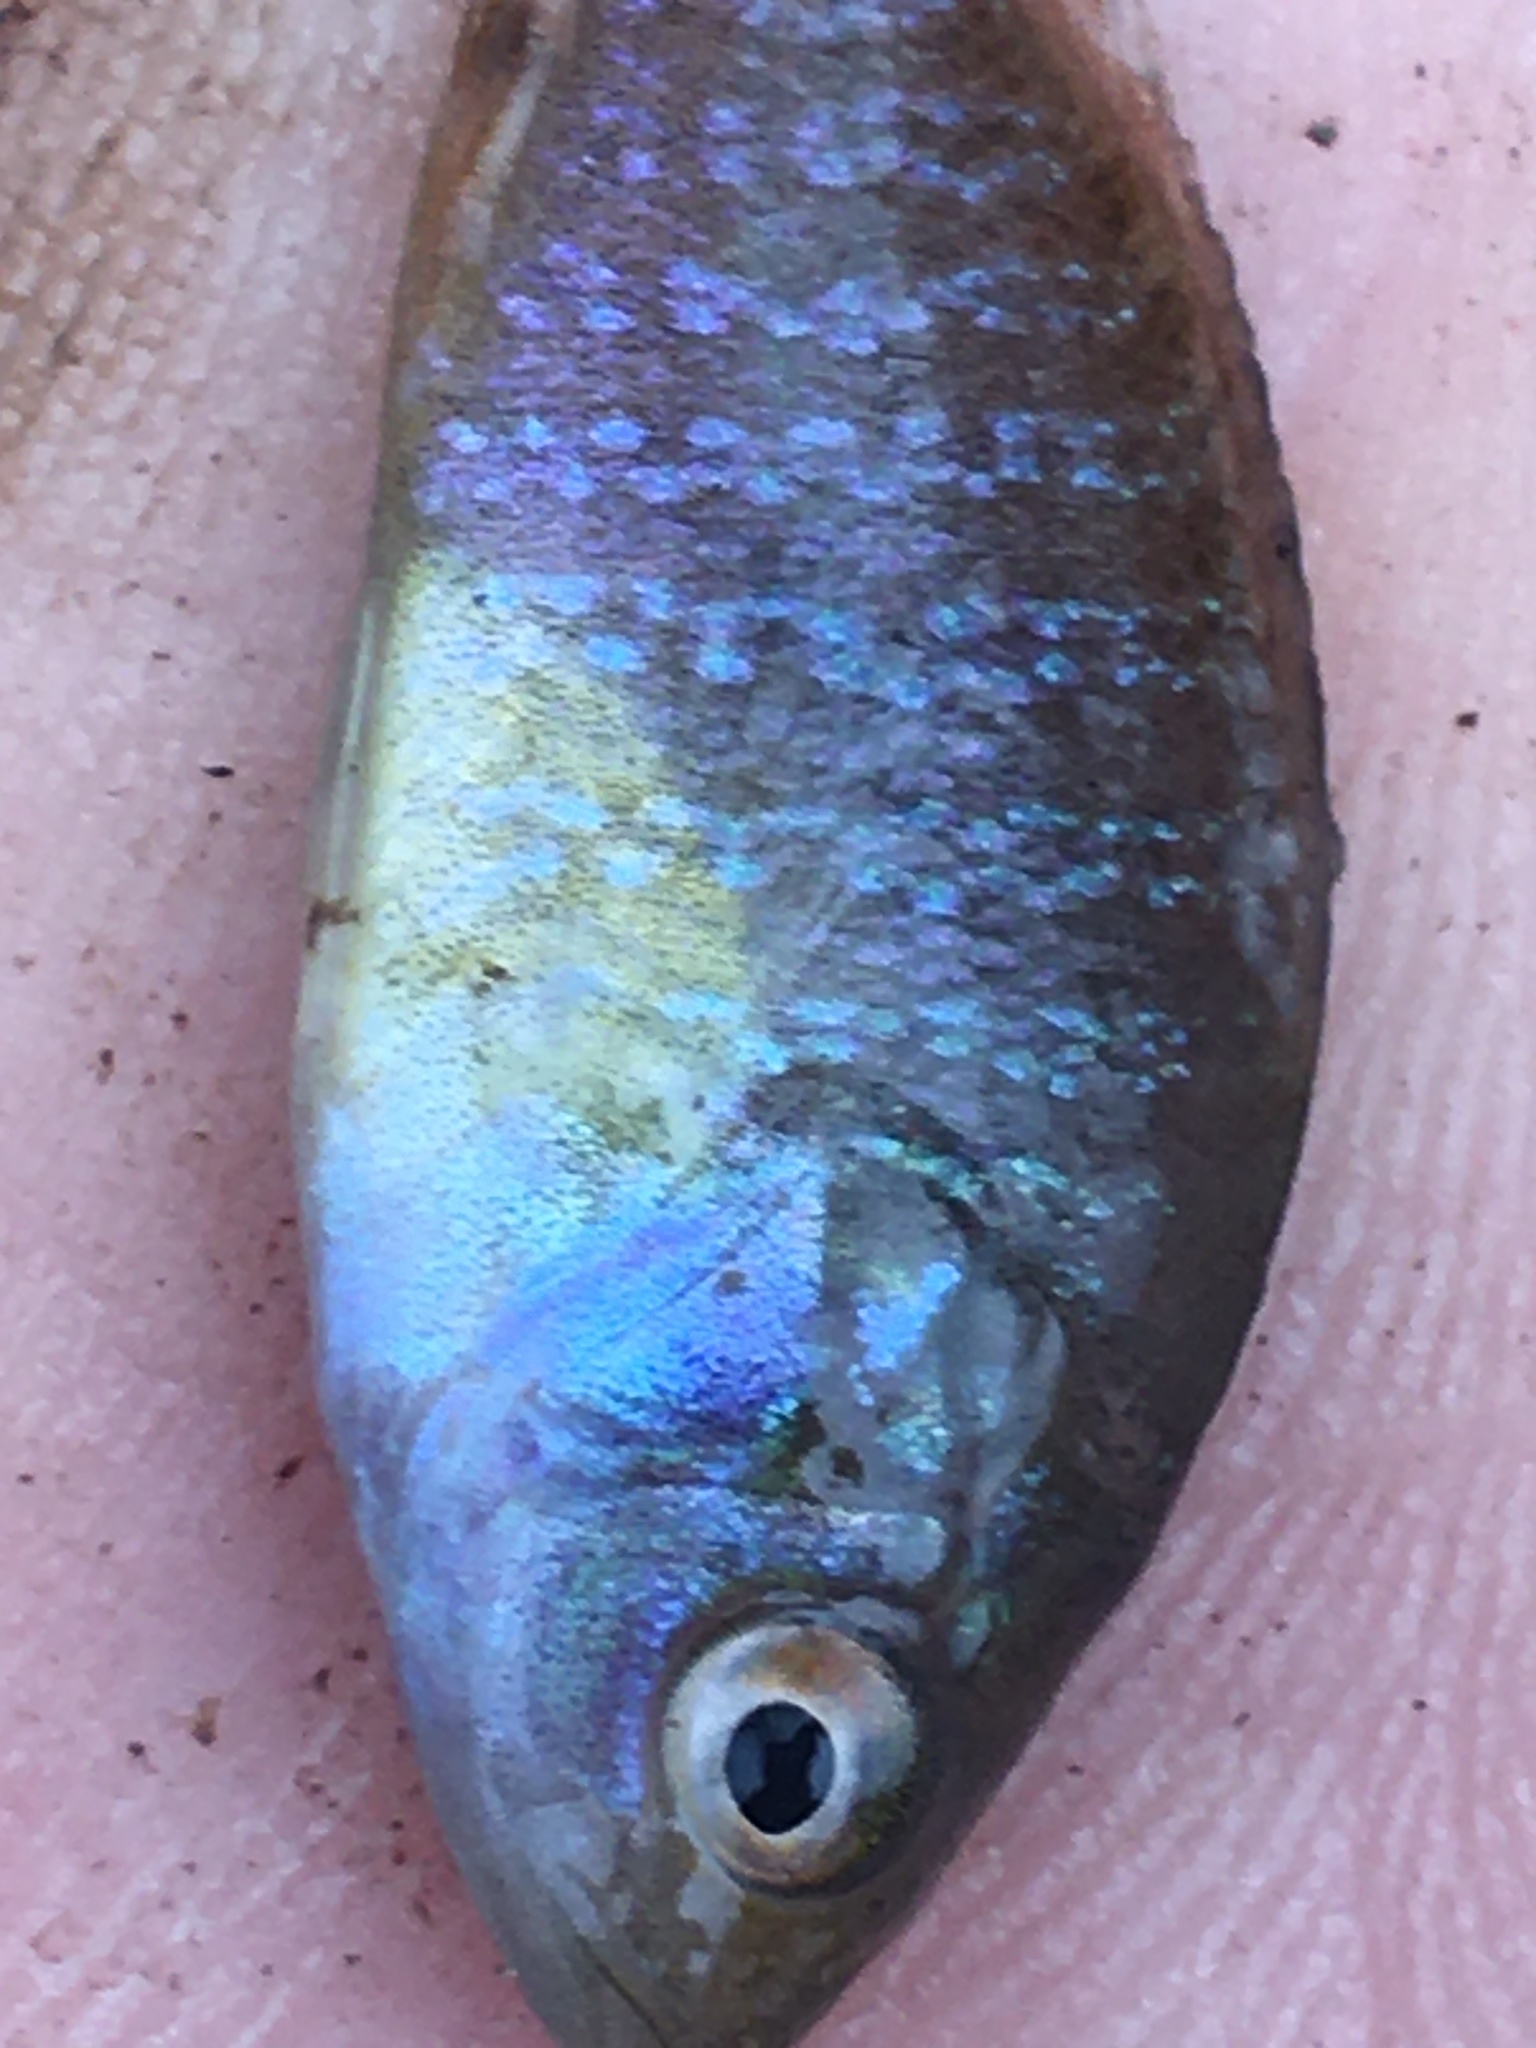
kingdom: Animalia
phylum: Chordata
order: Perciformes
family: Centrarchidae
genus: Lepomis
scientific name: Lepomis cyanellus
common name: Green sunfish
